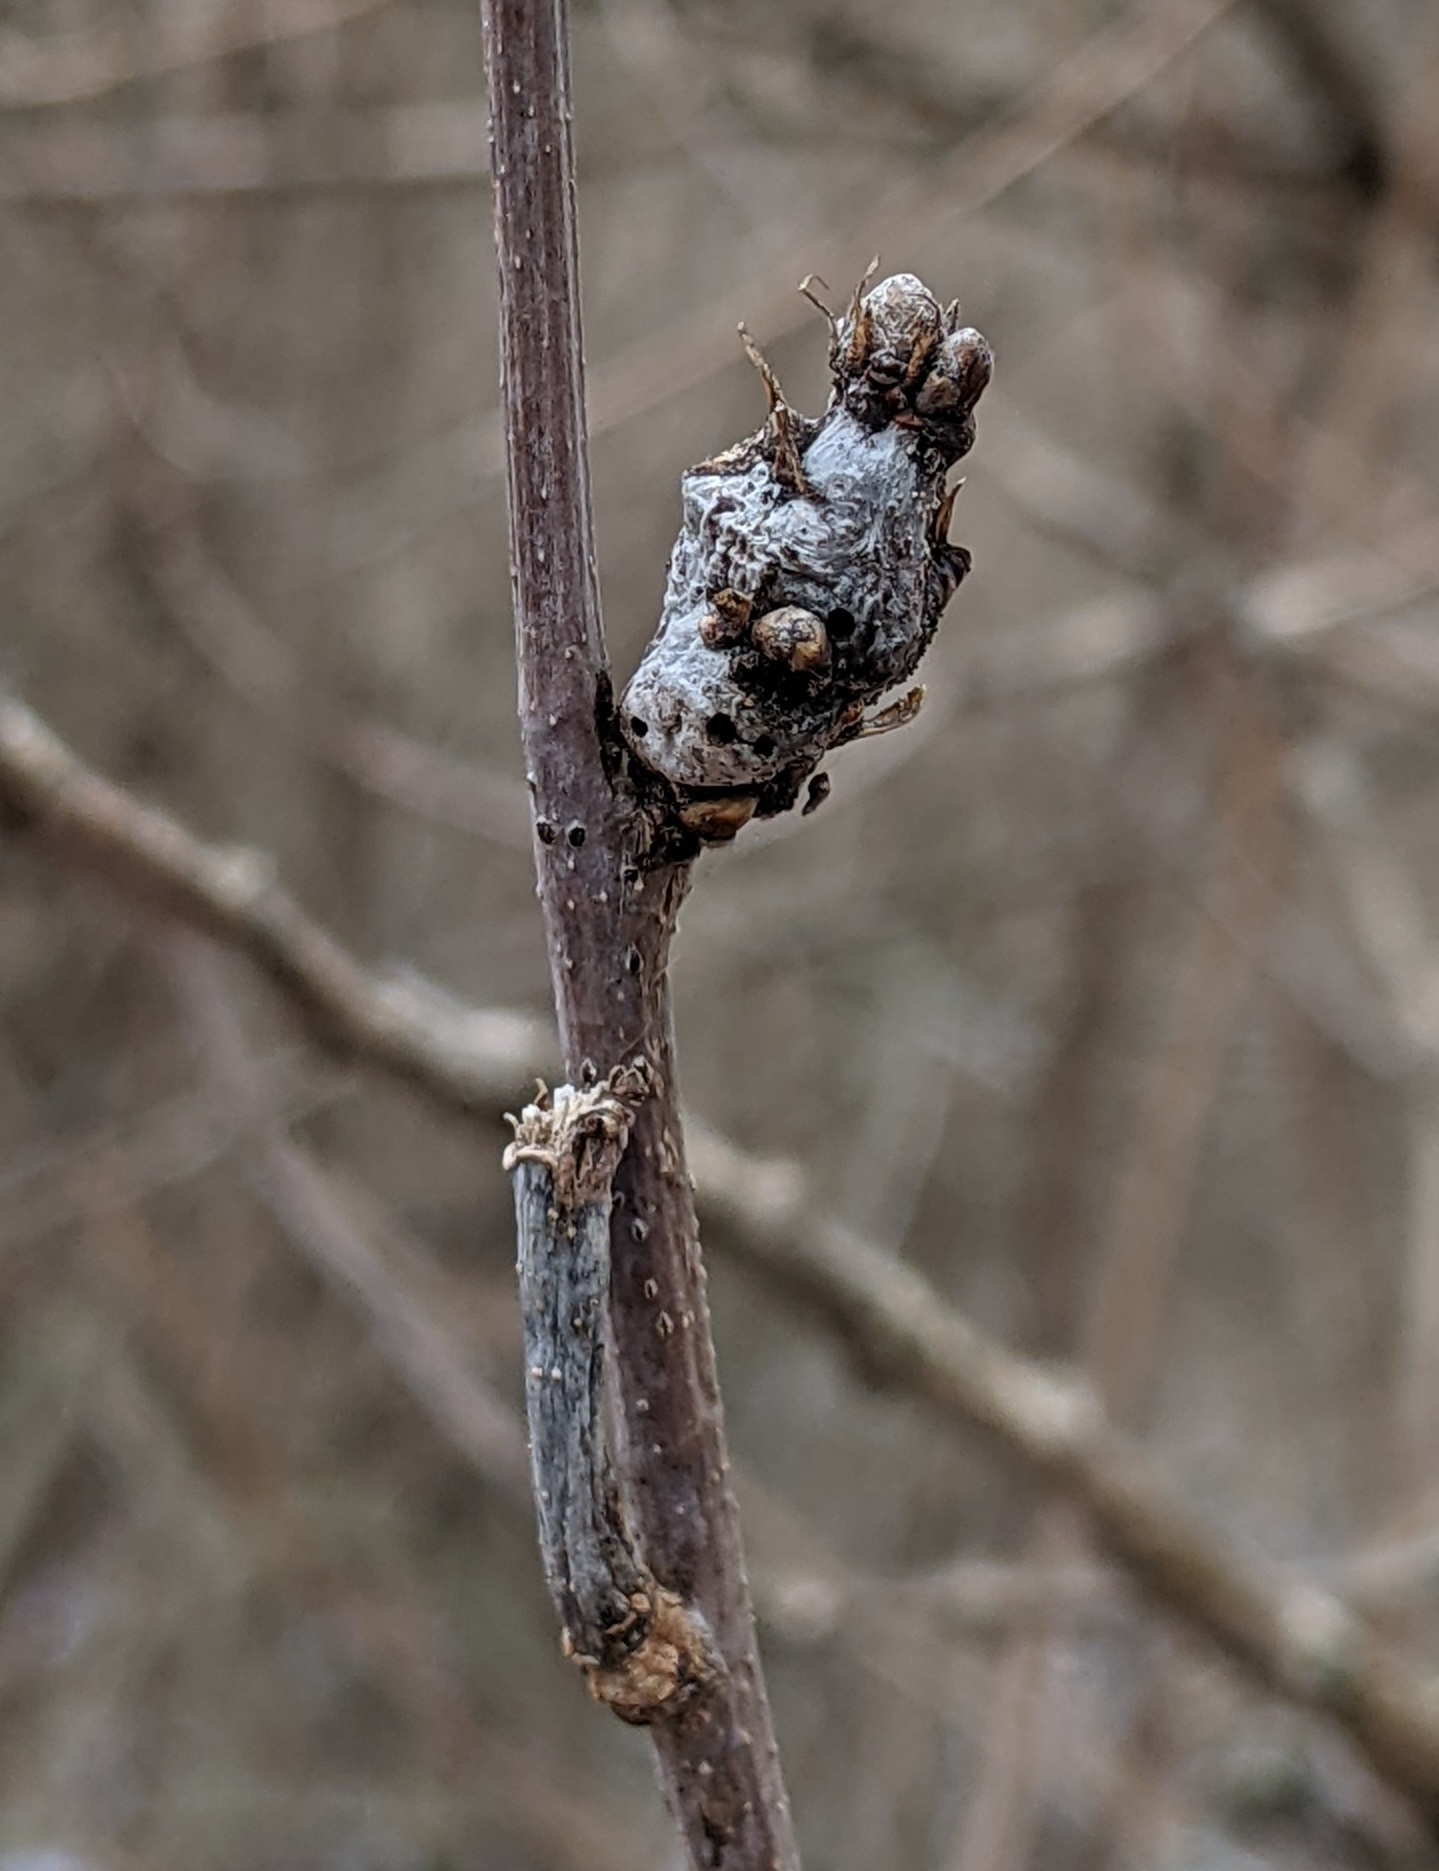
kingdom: Animalia
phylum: Arthropoda
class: Insecta
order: Hymenoptera
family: Cynipidae
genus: Neuroterus
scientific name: Neuroterus quercusbaccarum
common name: Common spangle gall
